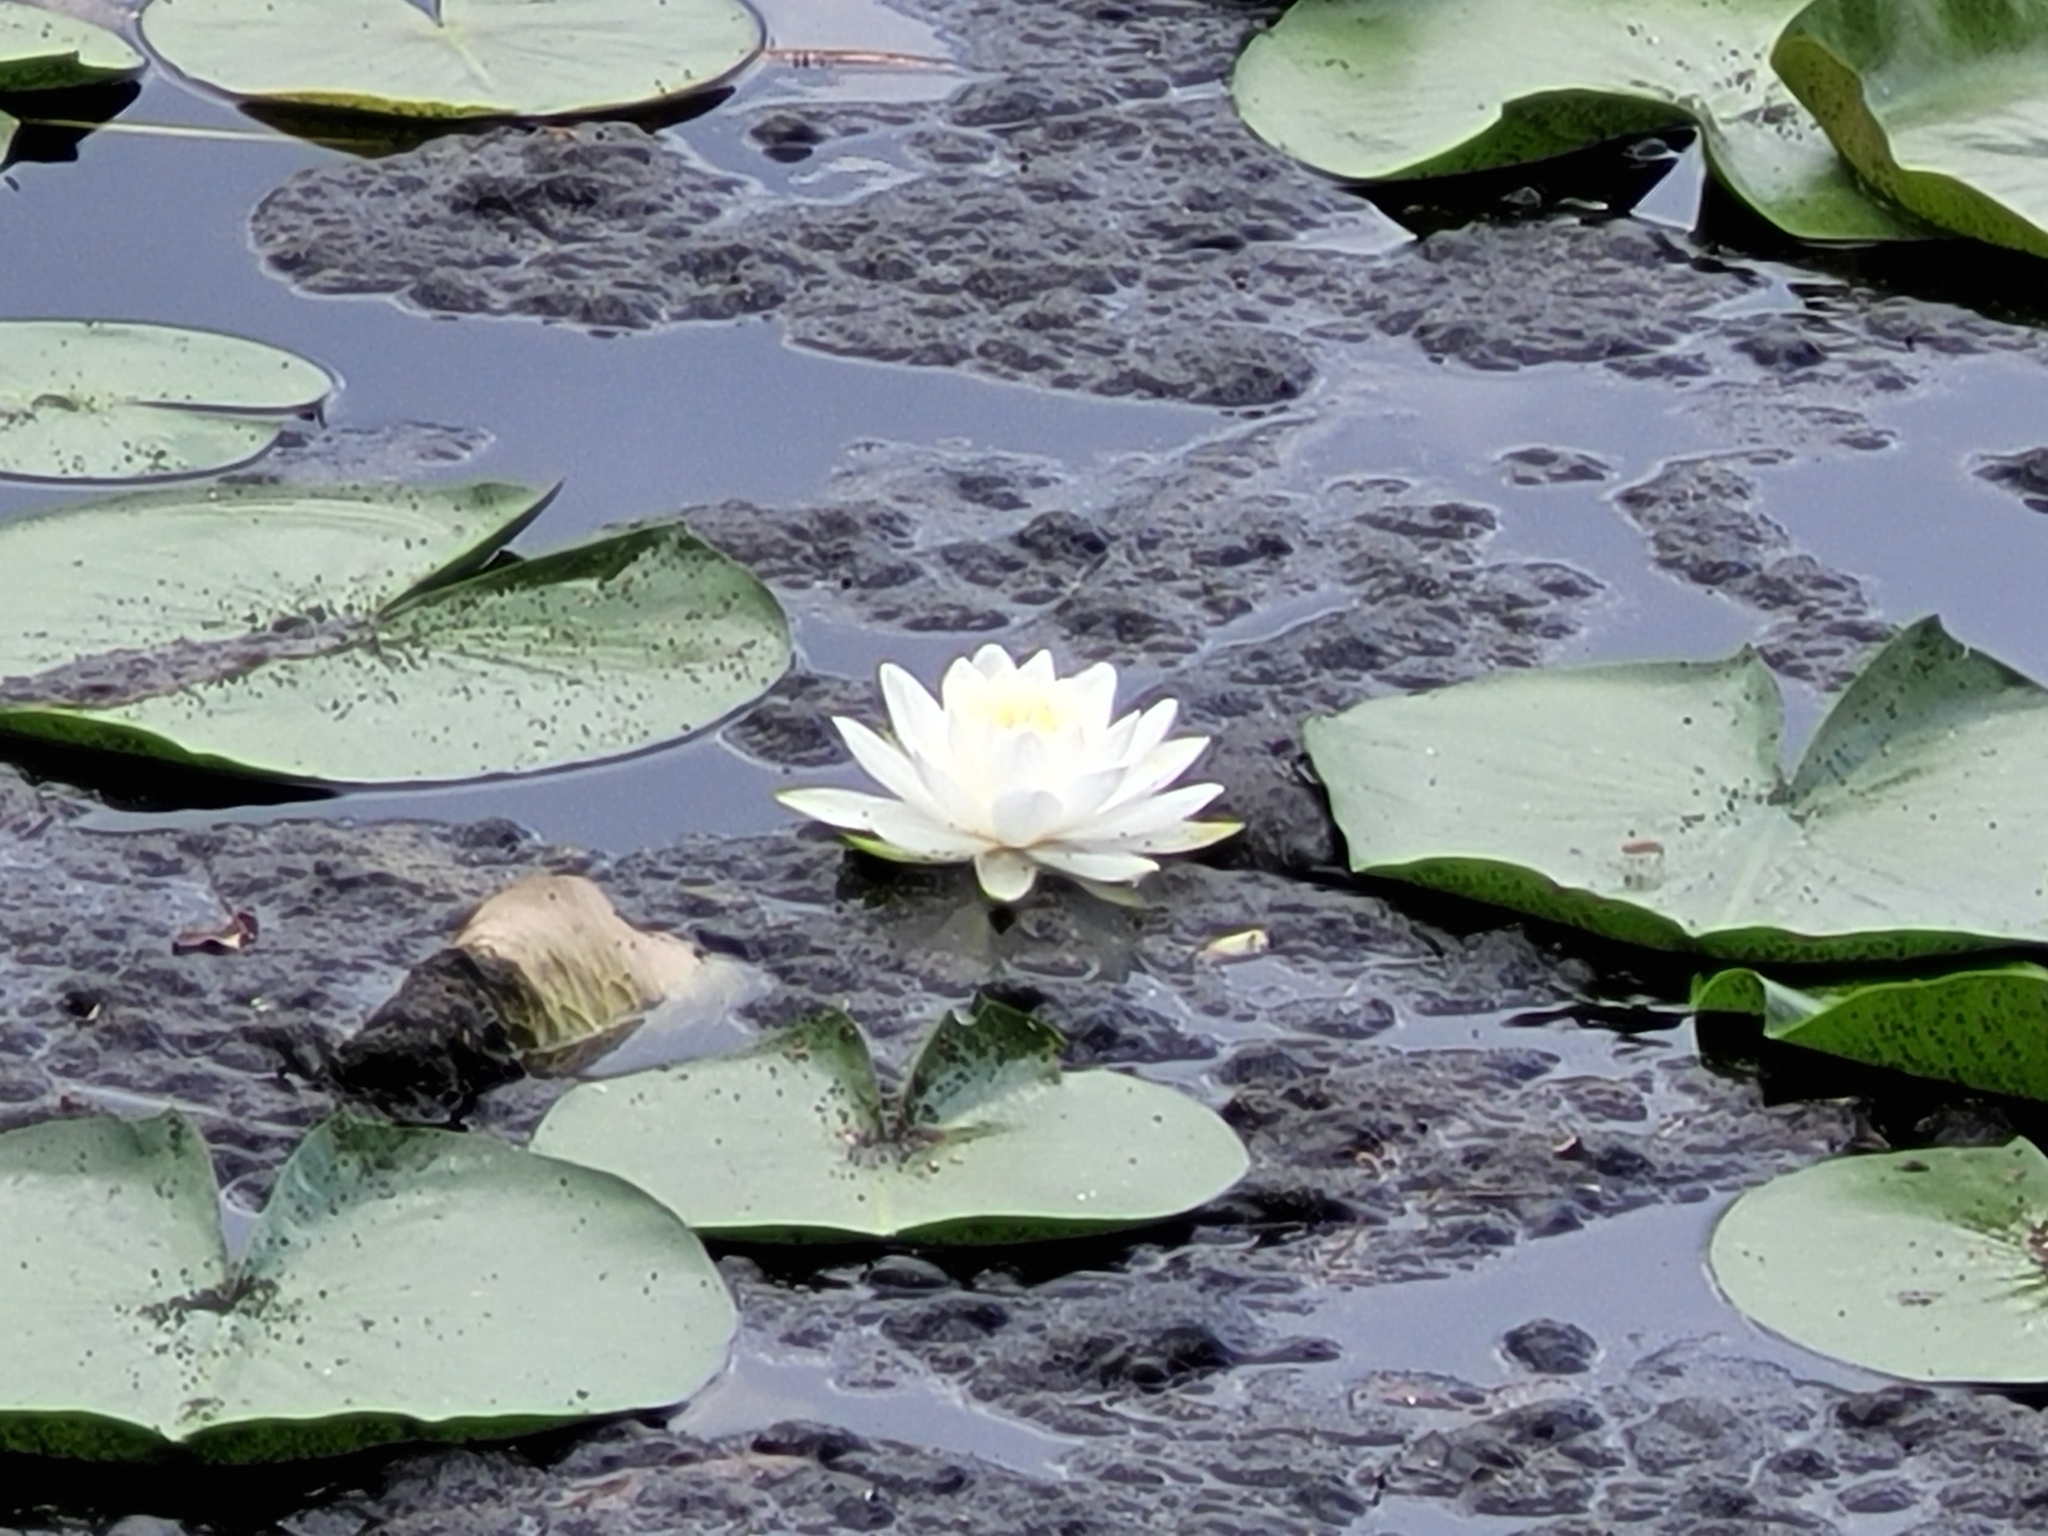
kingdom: Plantae
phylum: Tracheophyta
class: Magnoliopsida
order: Nymphaeales
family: Nymphaeaceae
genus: Nymphaea
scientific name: Nymphaea odorata
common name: Fragrant water-lily
